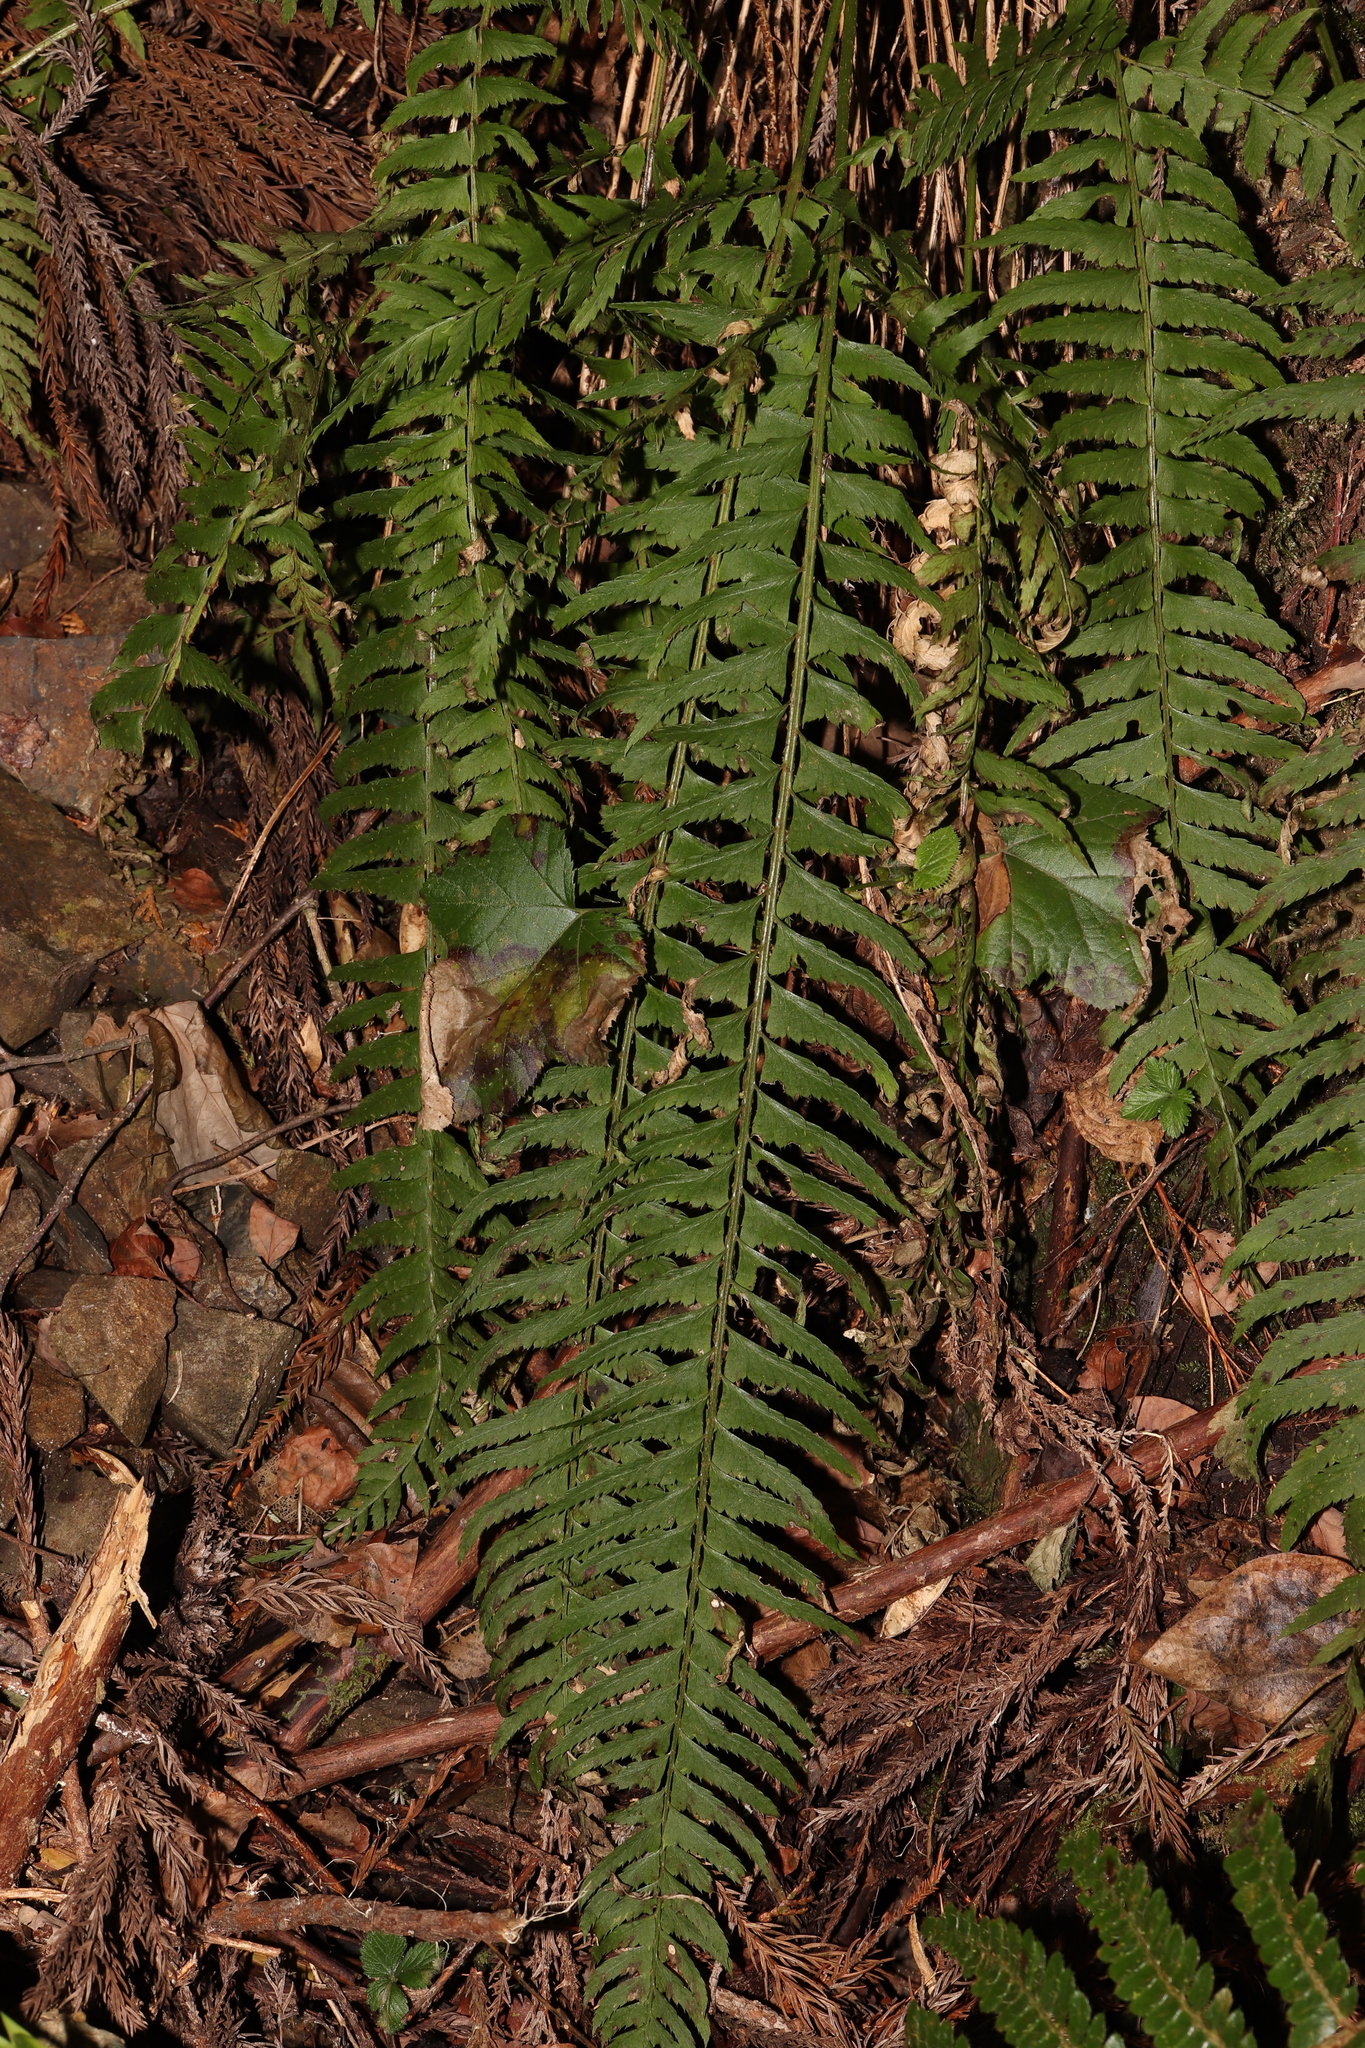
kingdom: Plantae
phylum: Tracheophyta
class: Polypodiopsida
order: Polypodiales
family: Dryopteridaceae
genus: Polystichum
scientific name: Polystichum tripteron
